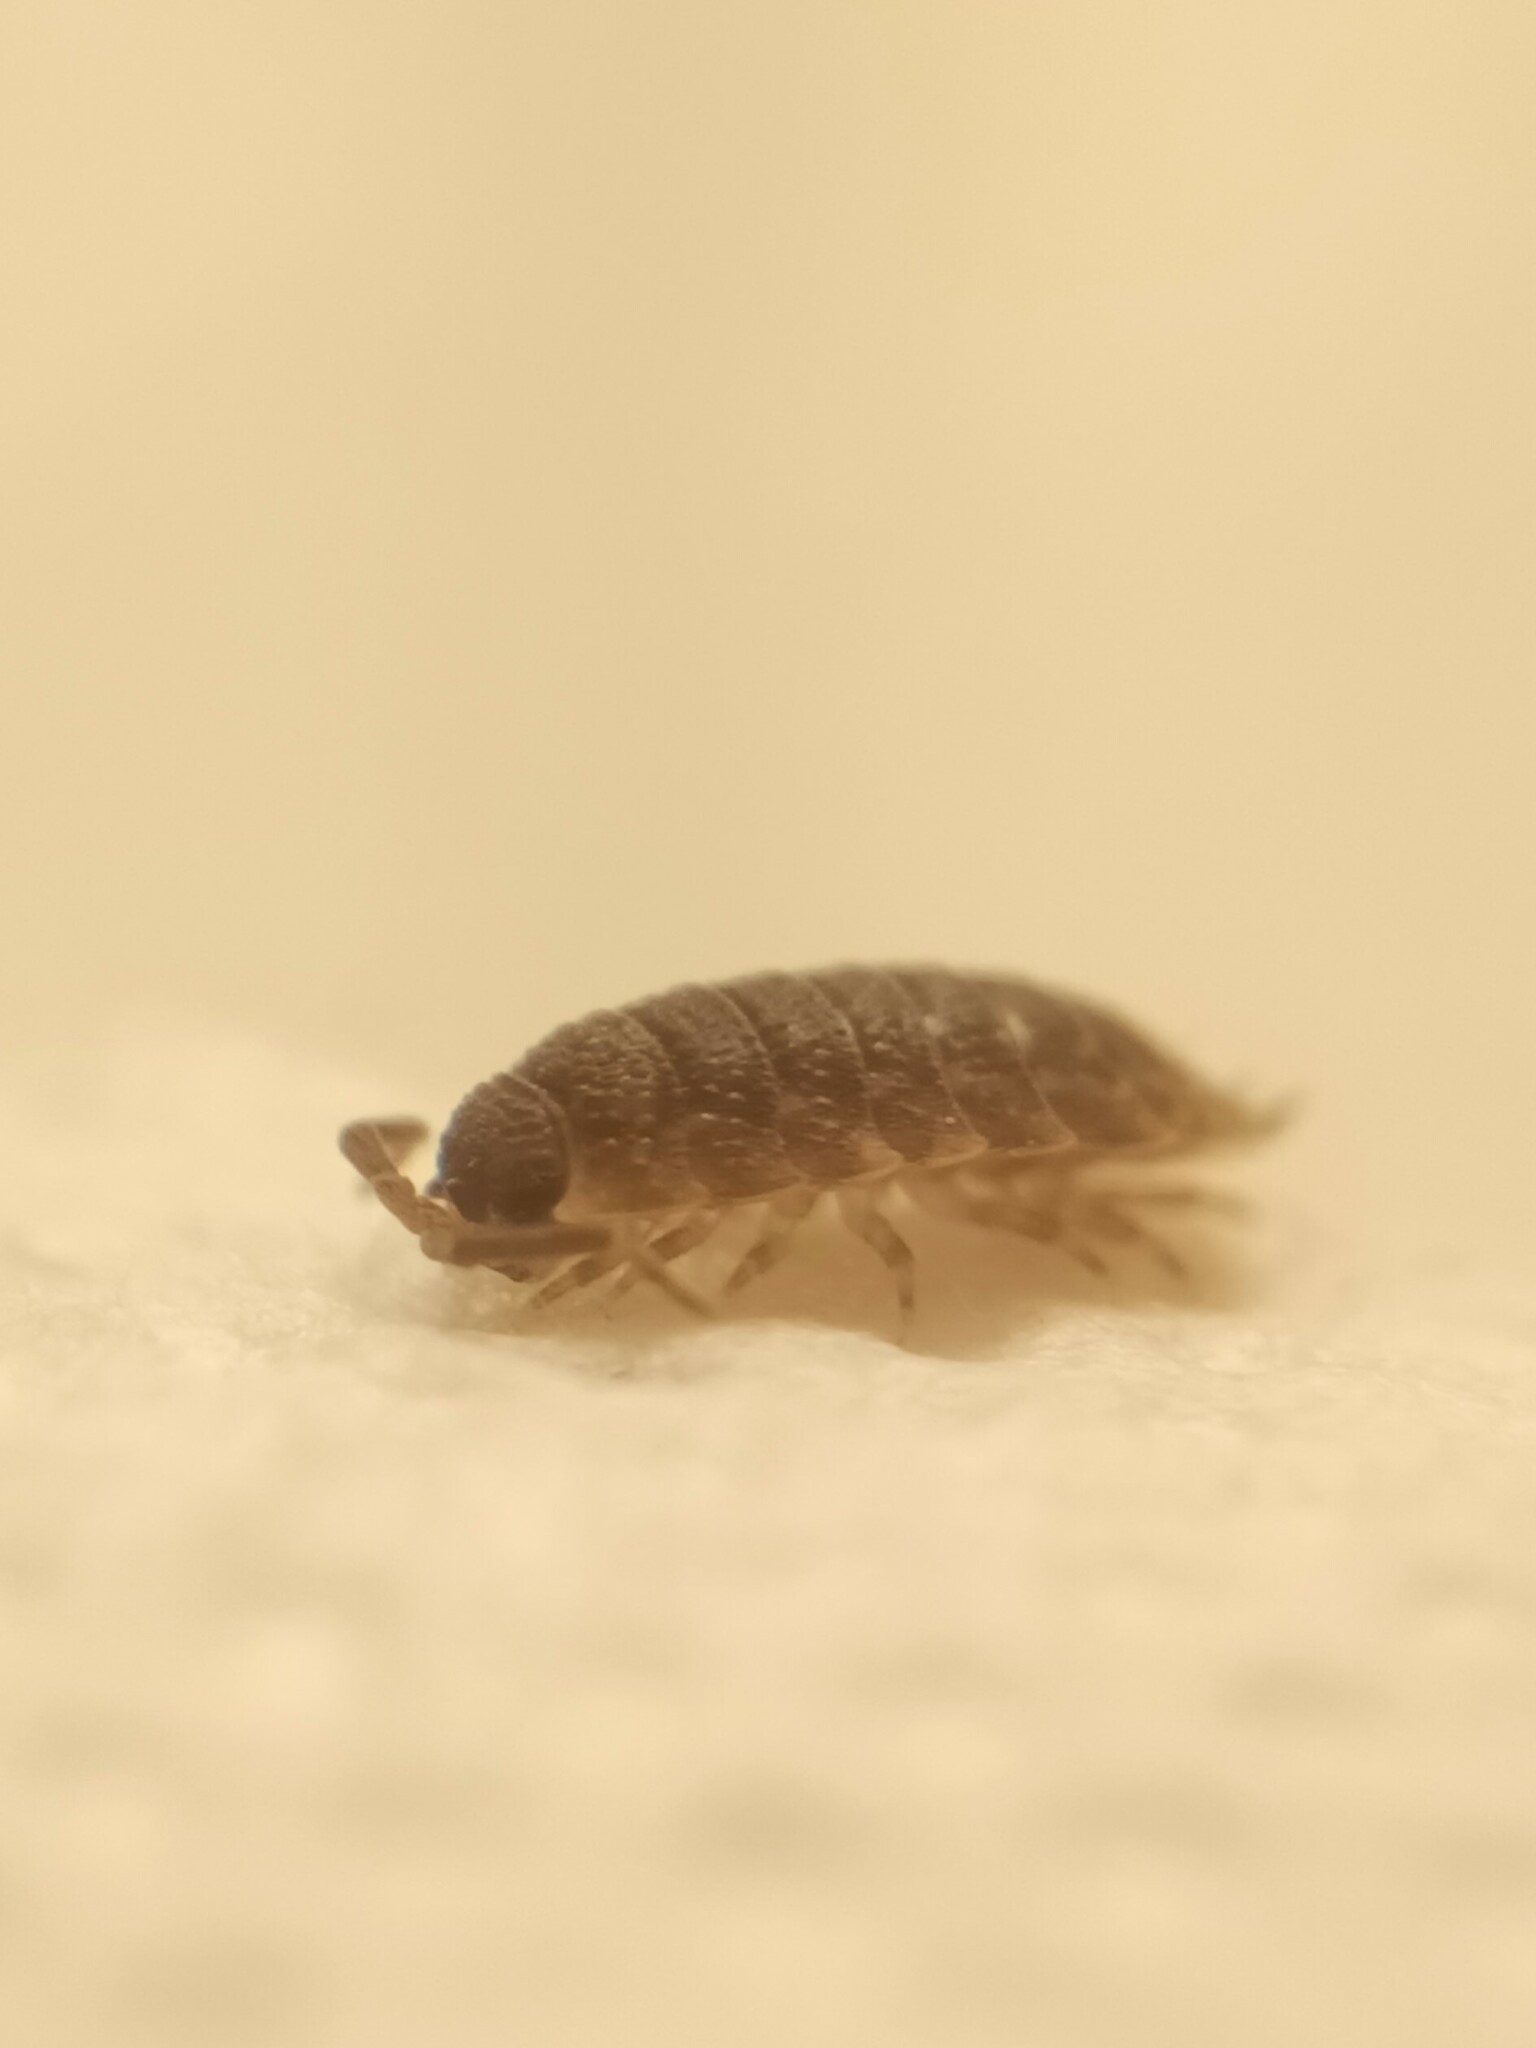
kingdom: Animalia
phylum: Arthropoda
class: Malacostraca
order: Isopoda
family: Porcellionidae
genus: Porcellio
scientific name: Porcellio scaber
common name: Common rough woodlouse
